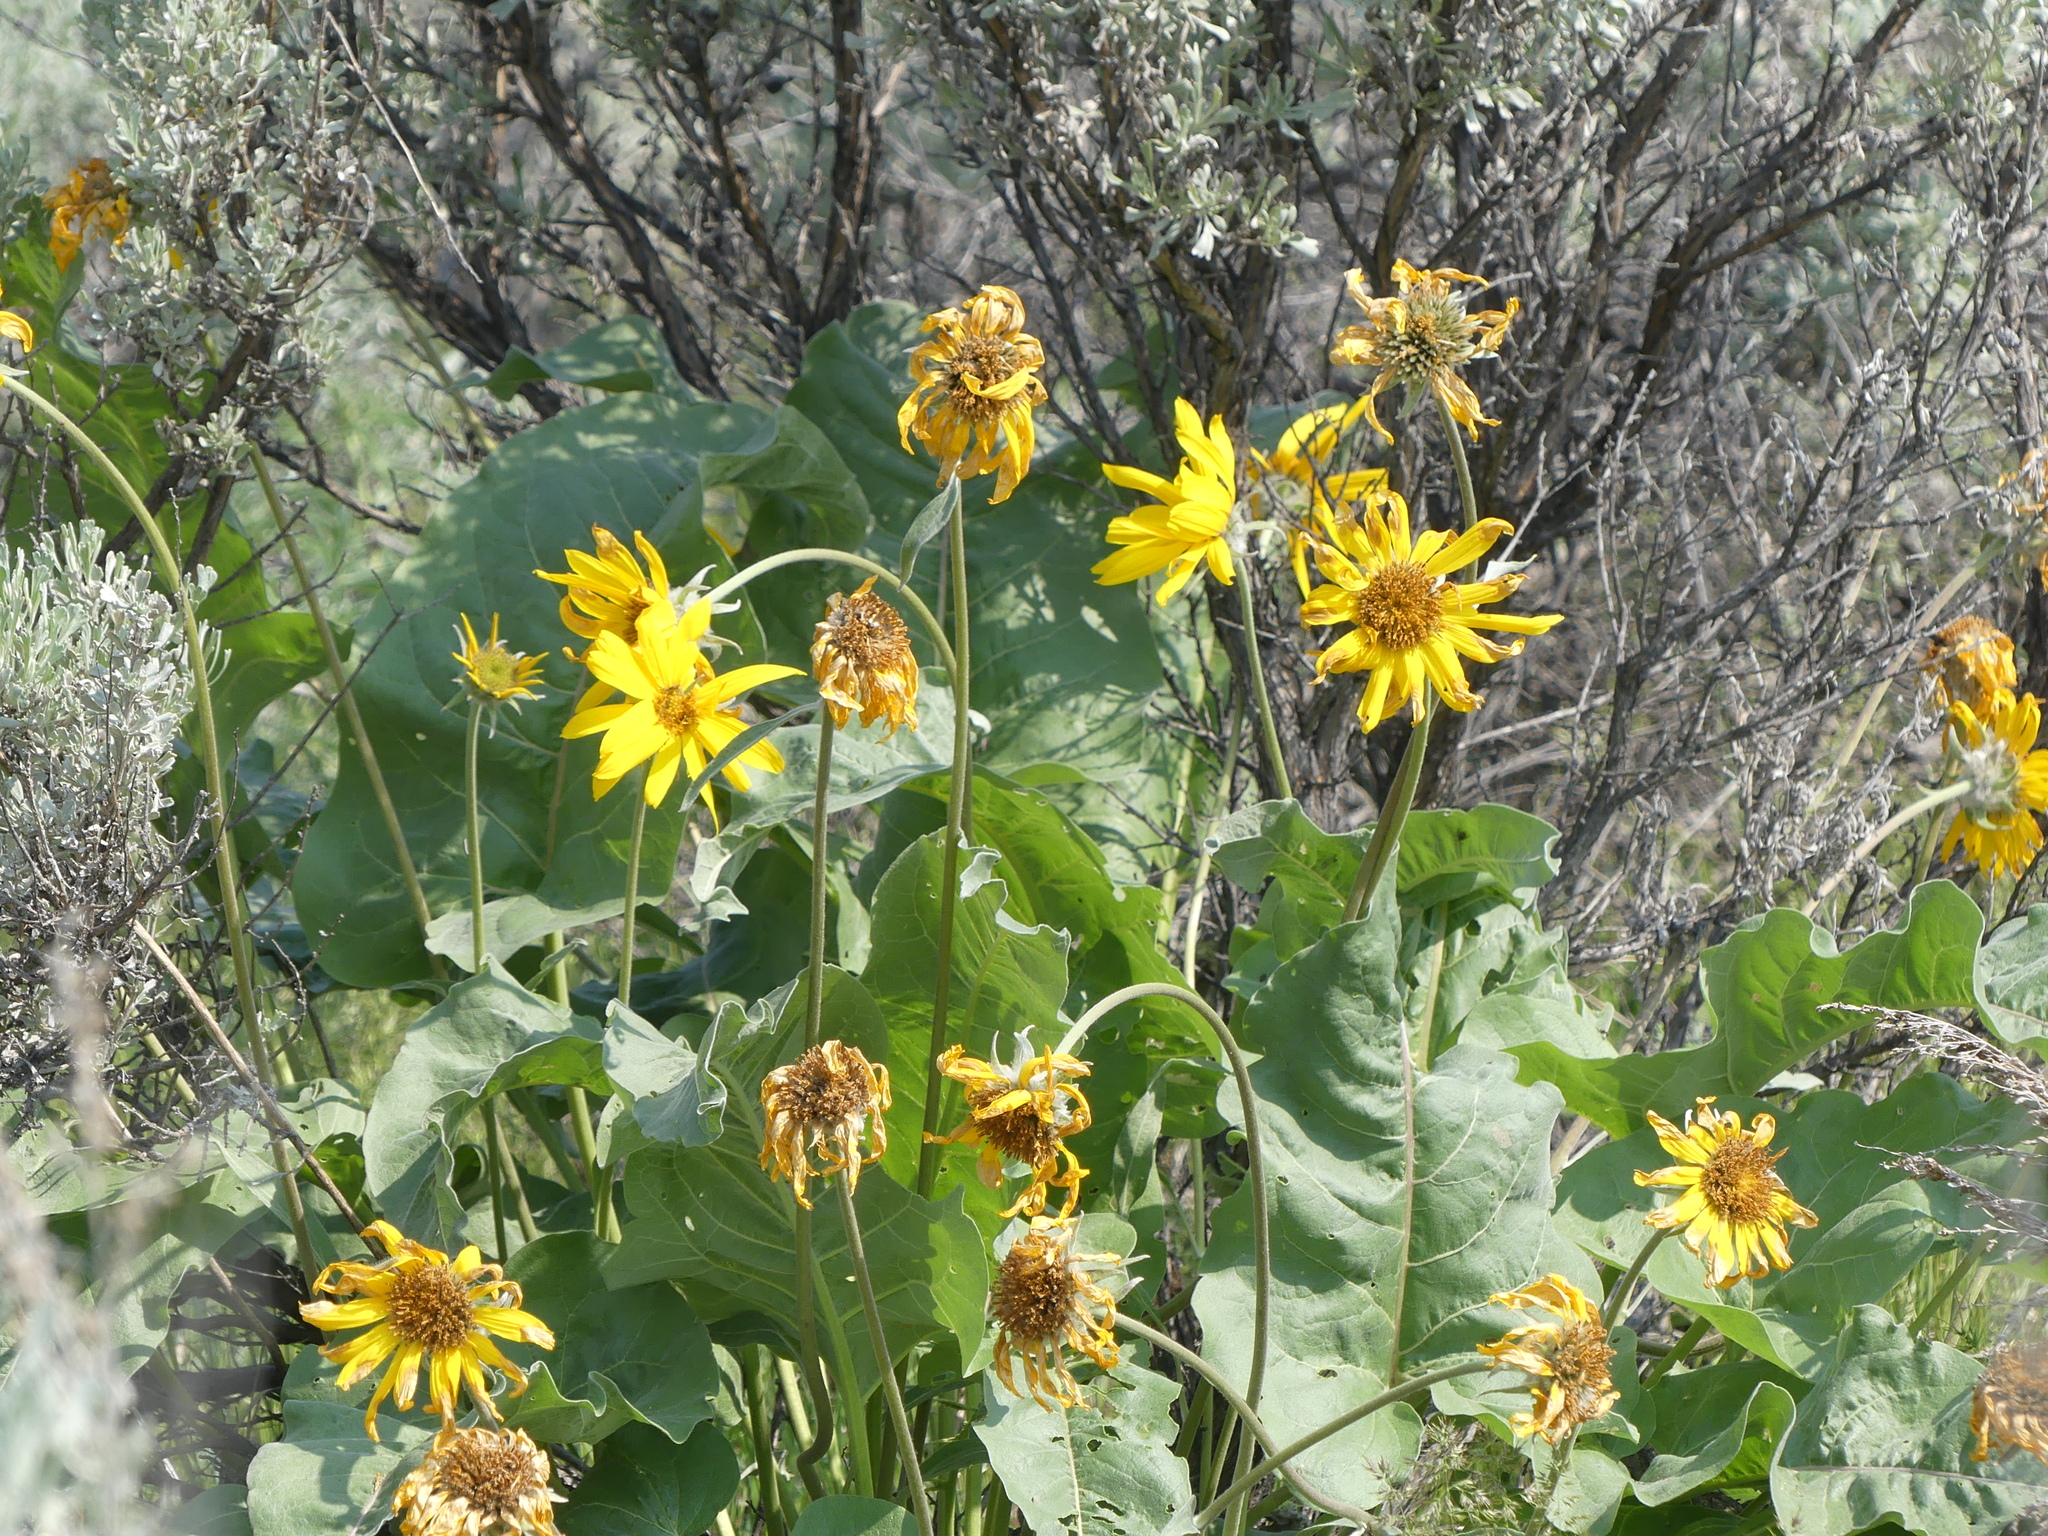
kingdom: Plantae
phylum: Tracheophyta
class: Magnoliopsida
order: Asterales
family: Asteraceae
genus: Wyethia
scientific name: Wyethia sagittata
